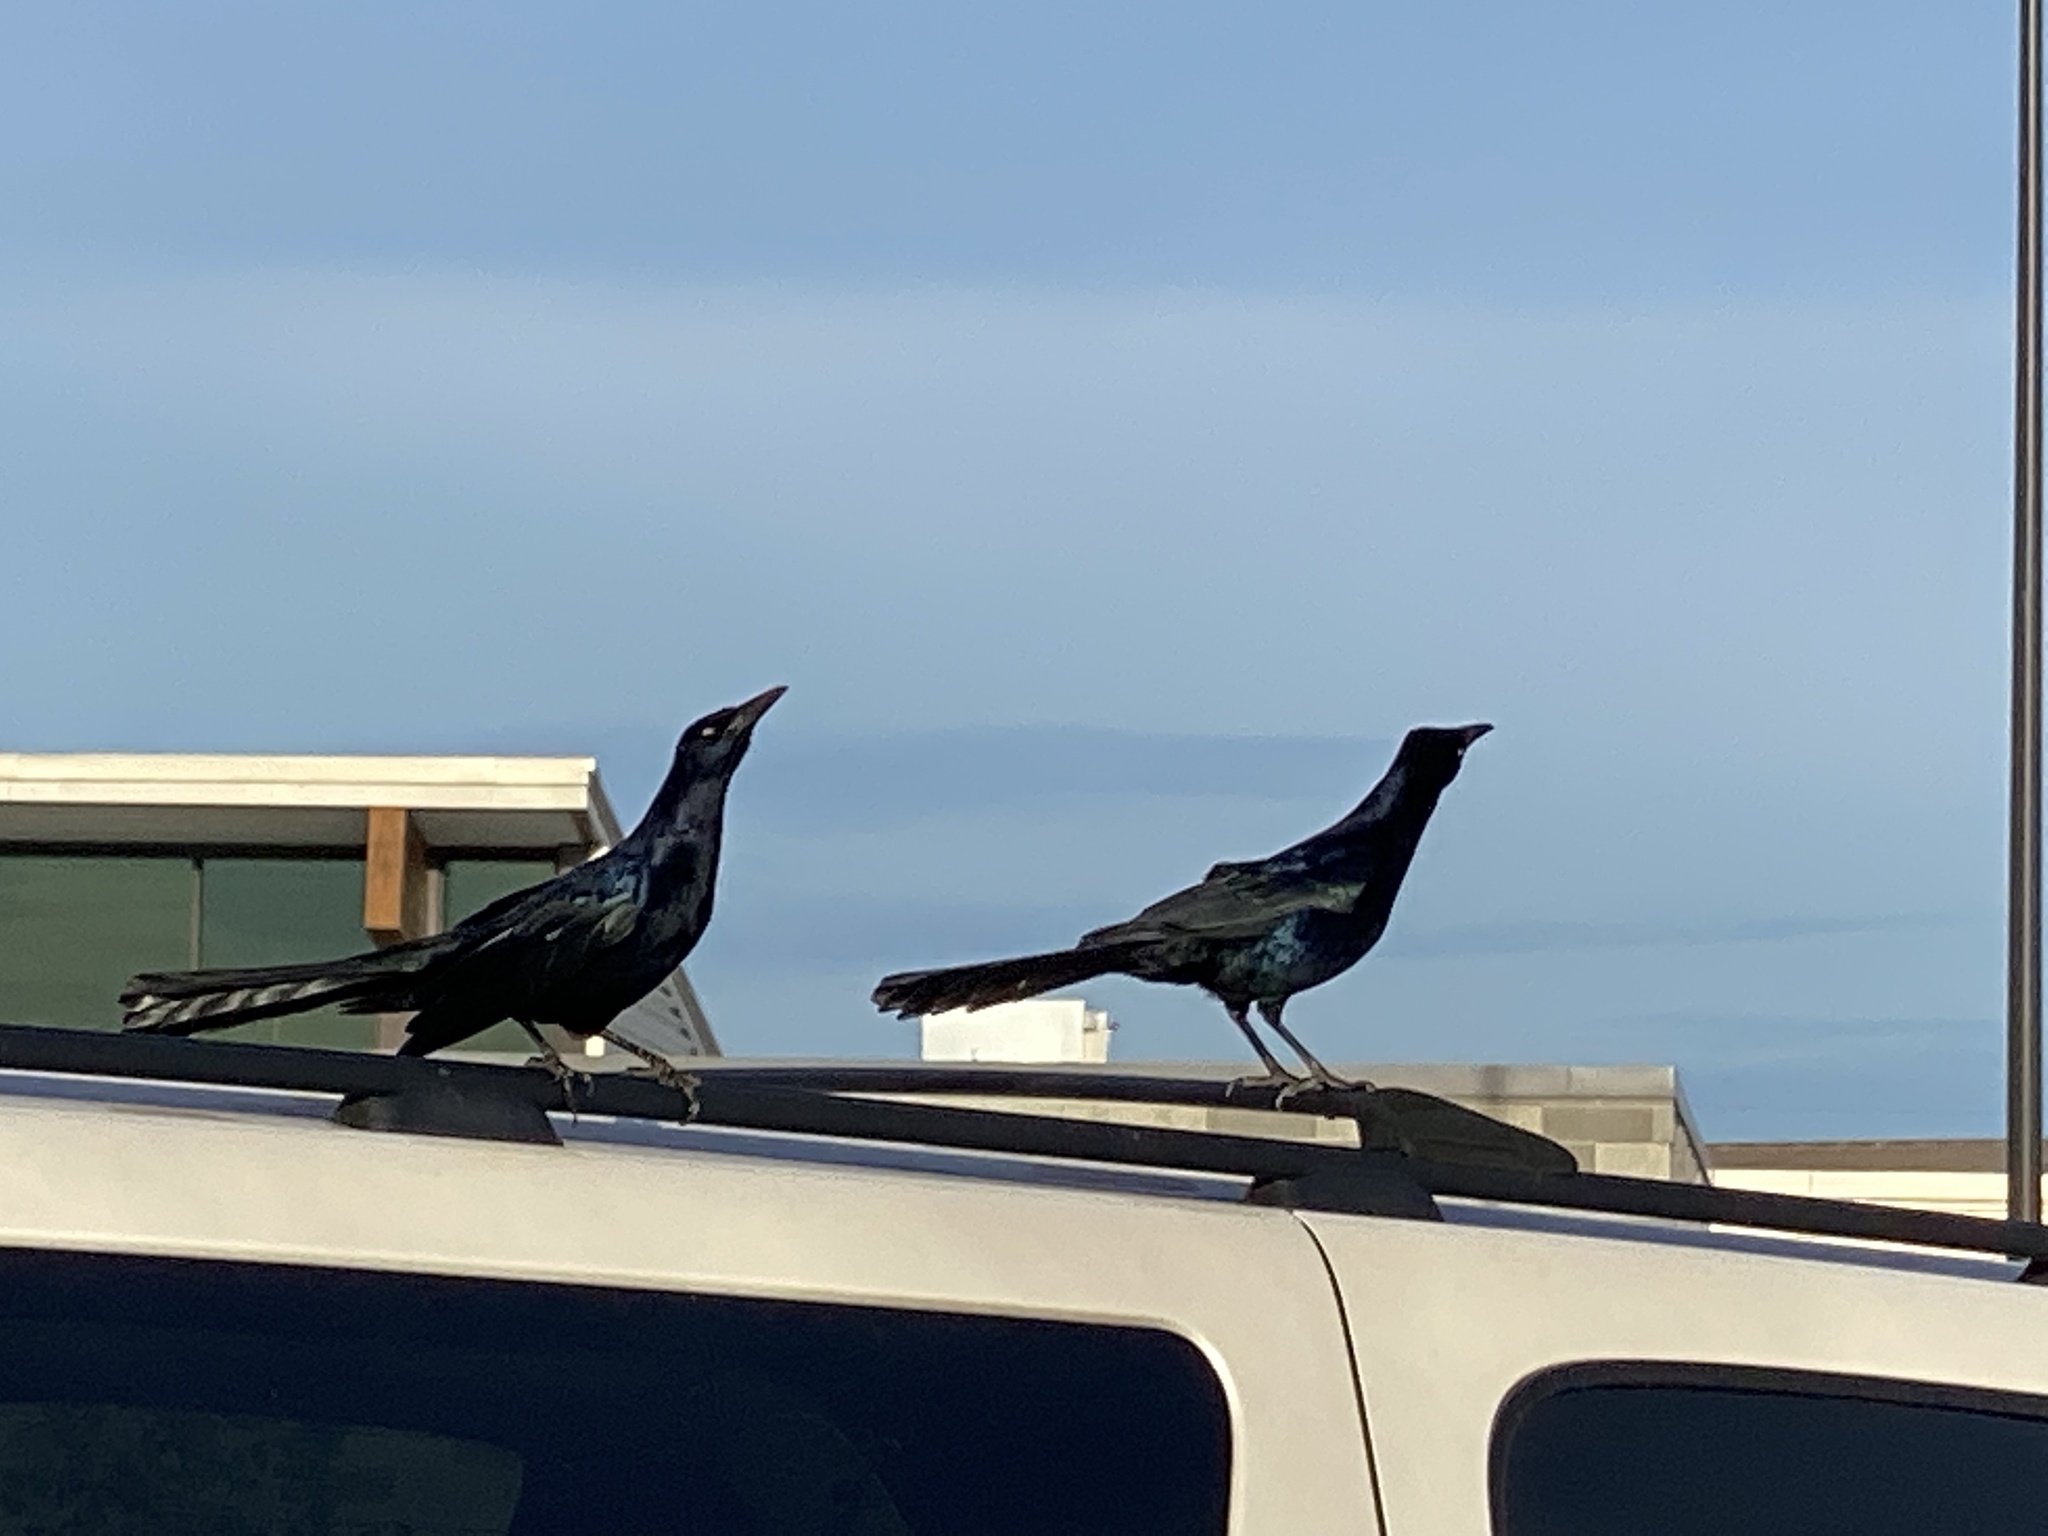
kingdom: Animalia
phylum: Chordata
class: Aves
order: Passeriformes
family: Icteridae
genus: Quiscalus
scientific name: Quiscalus mexicanus
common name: Great-tailed grackle
